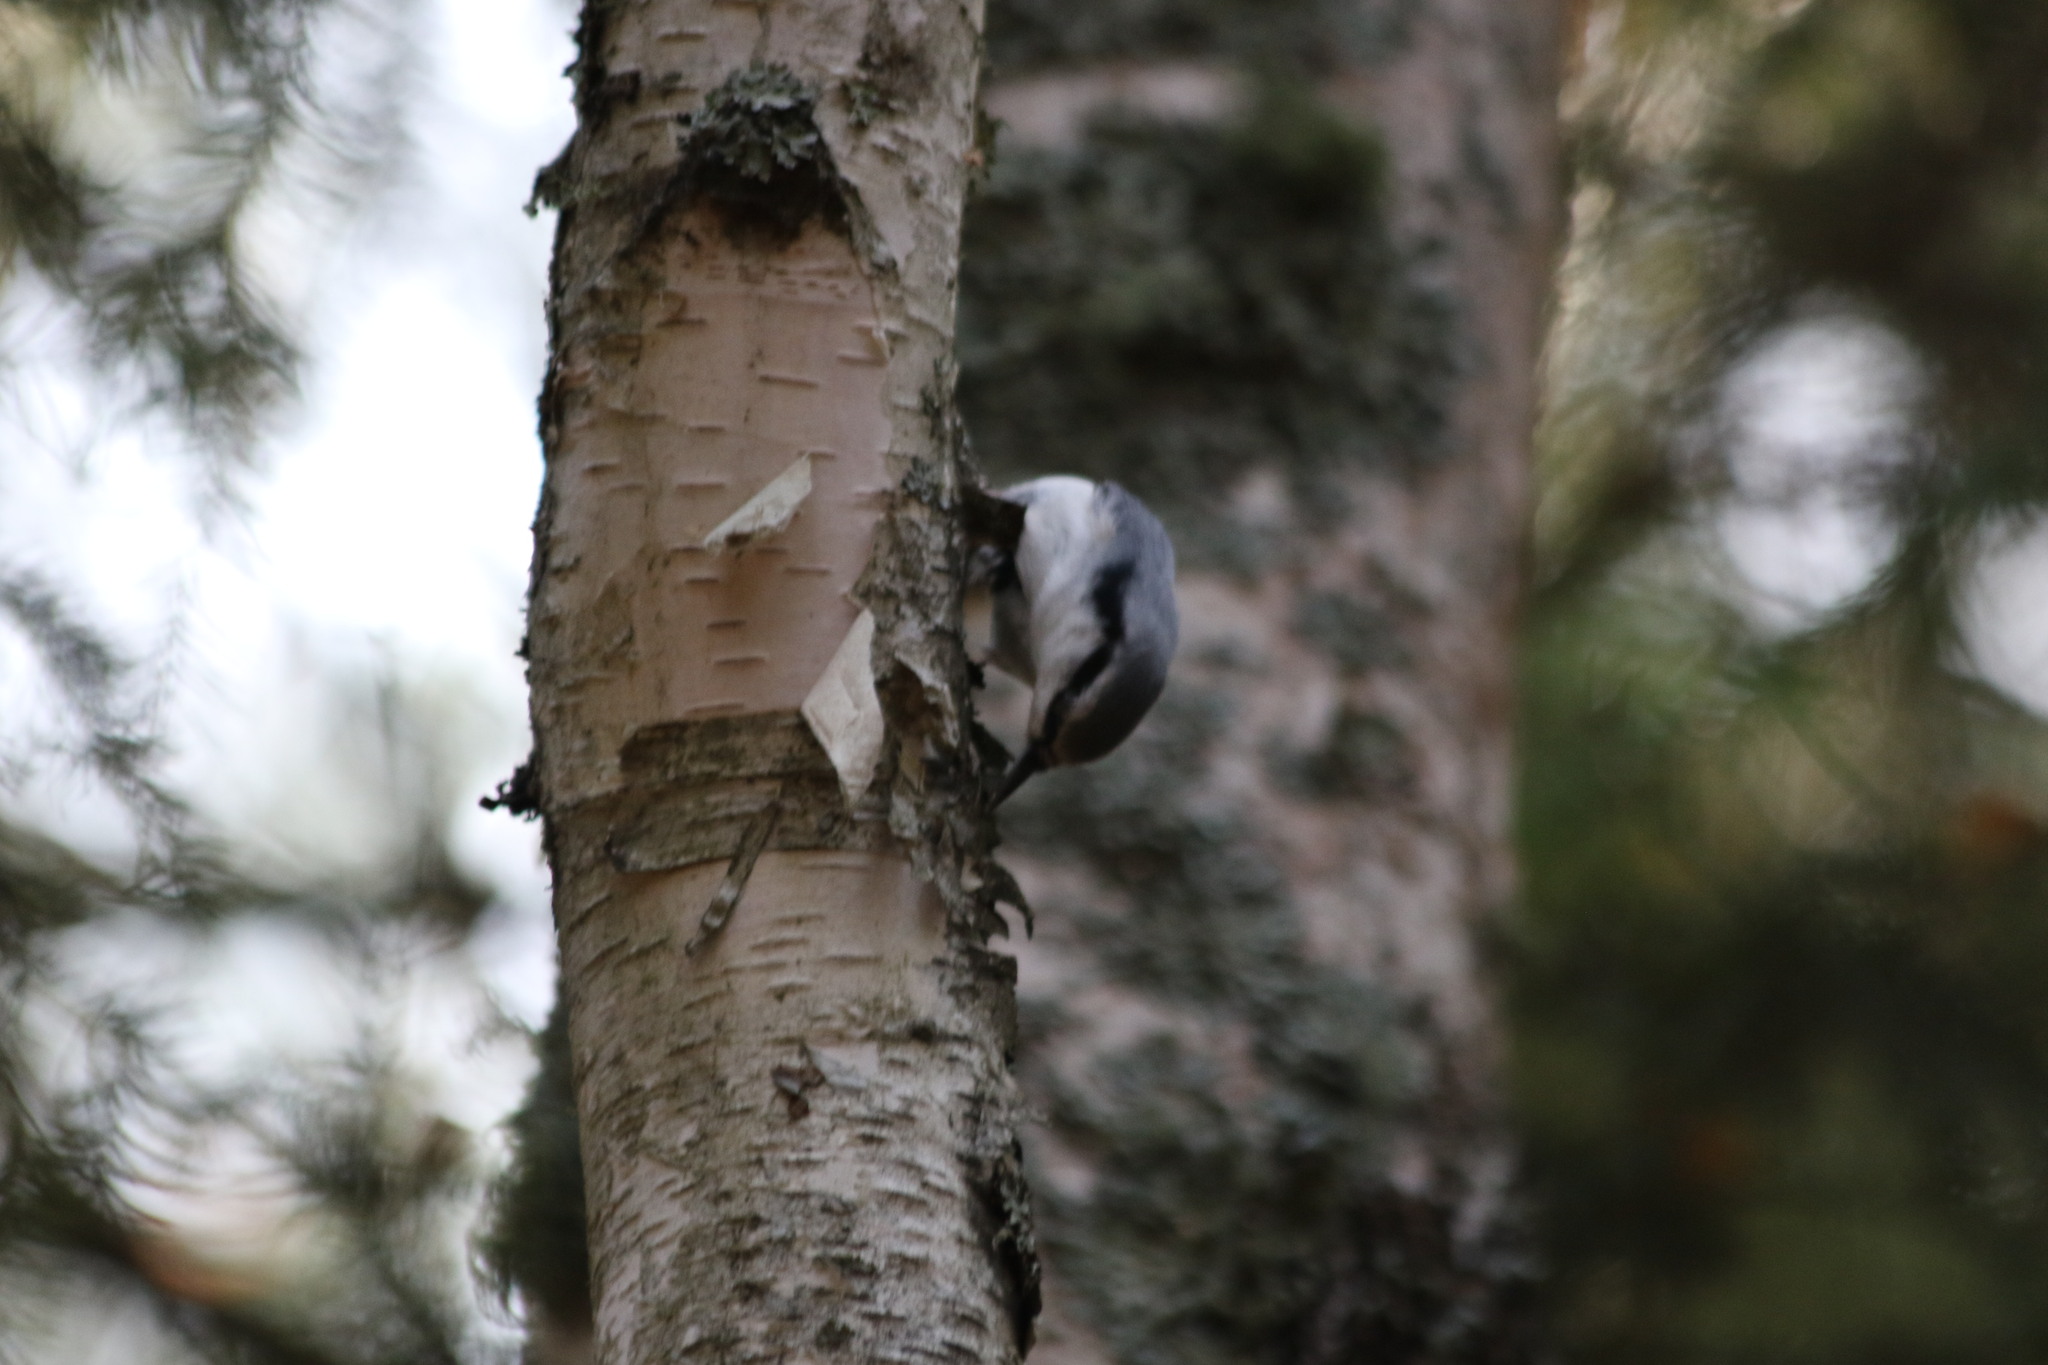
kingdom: Animalia
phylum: Chordata
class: Aves
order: Passeriformes
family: Sittidae
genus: Sitta
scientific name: Sitta europaea
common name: Eurasian nuthatch
